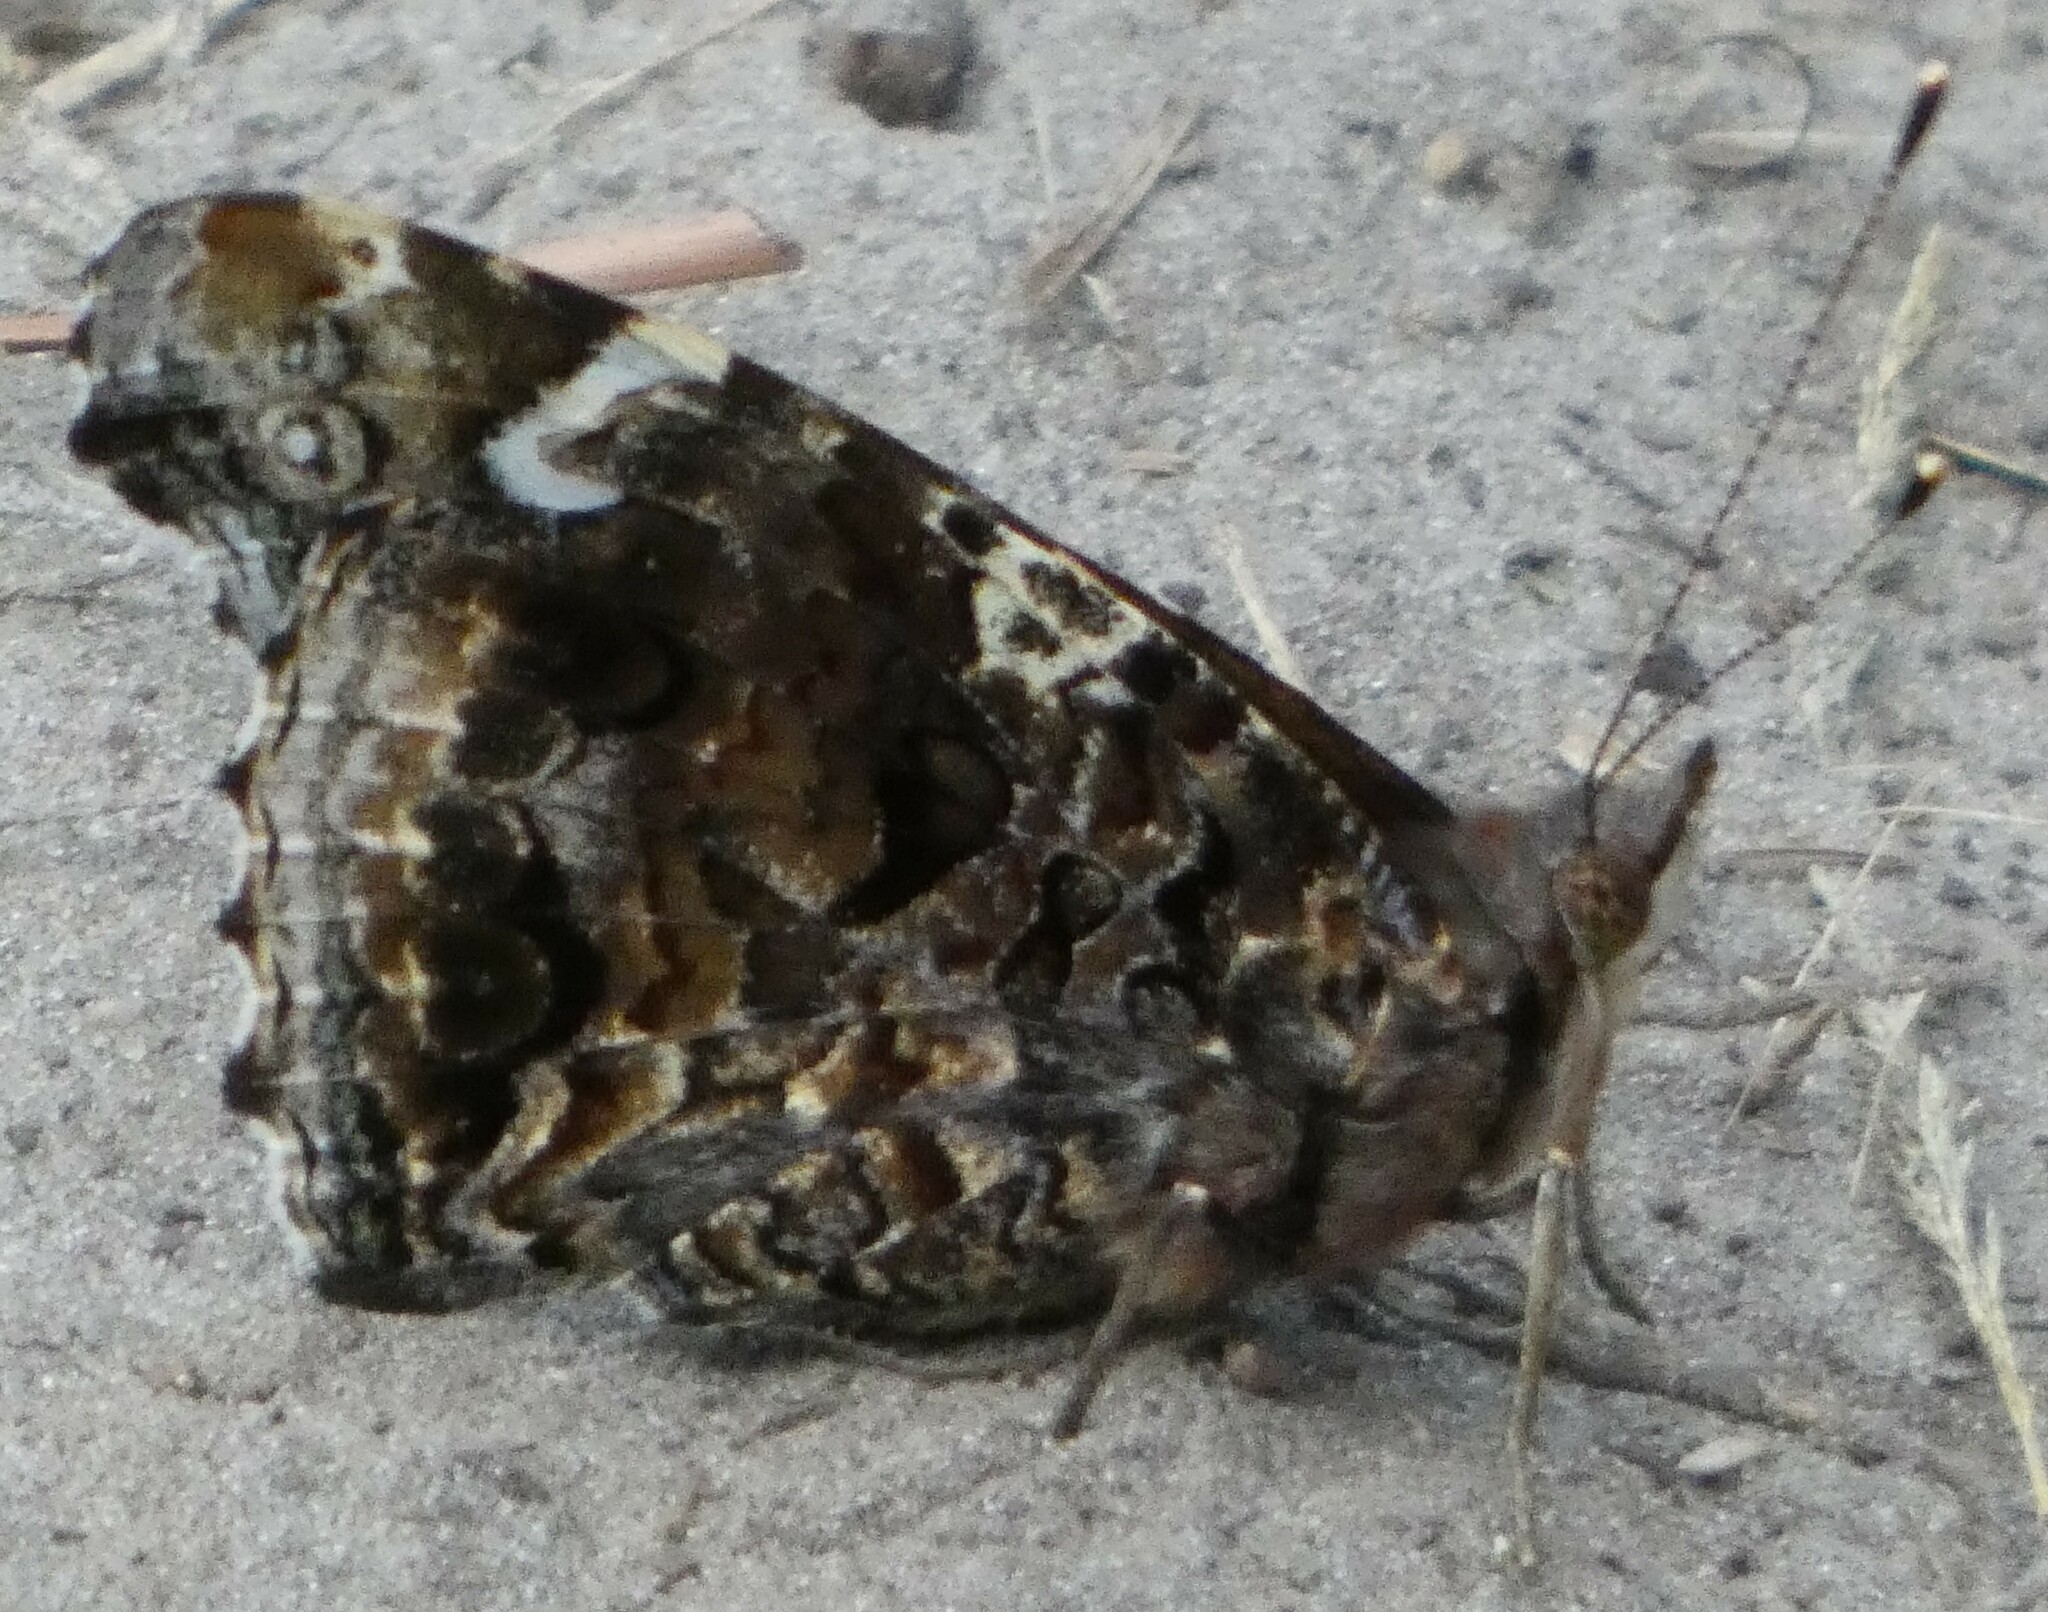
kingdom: Animalia
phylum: Arthropoda
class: Insecta
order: Lepidoptera
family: Nymphalidae
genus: Vanessa
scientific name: Vanessa atalanta
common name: Red admiral
